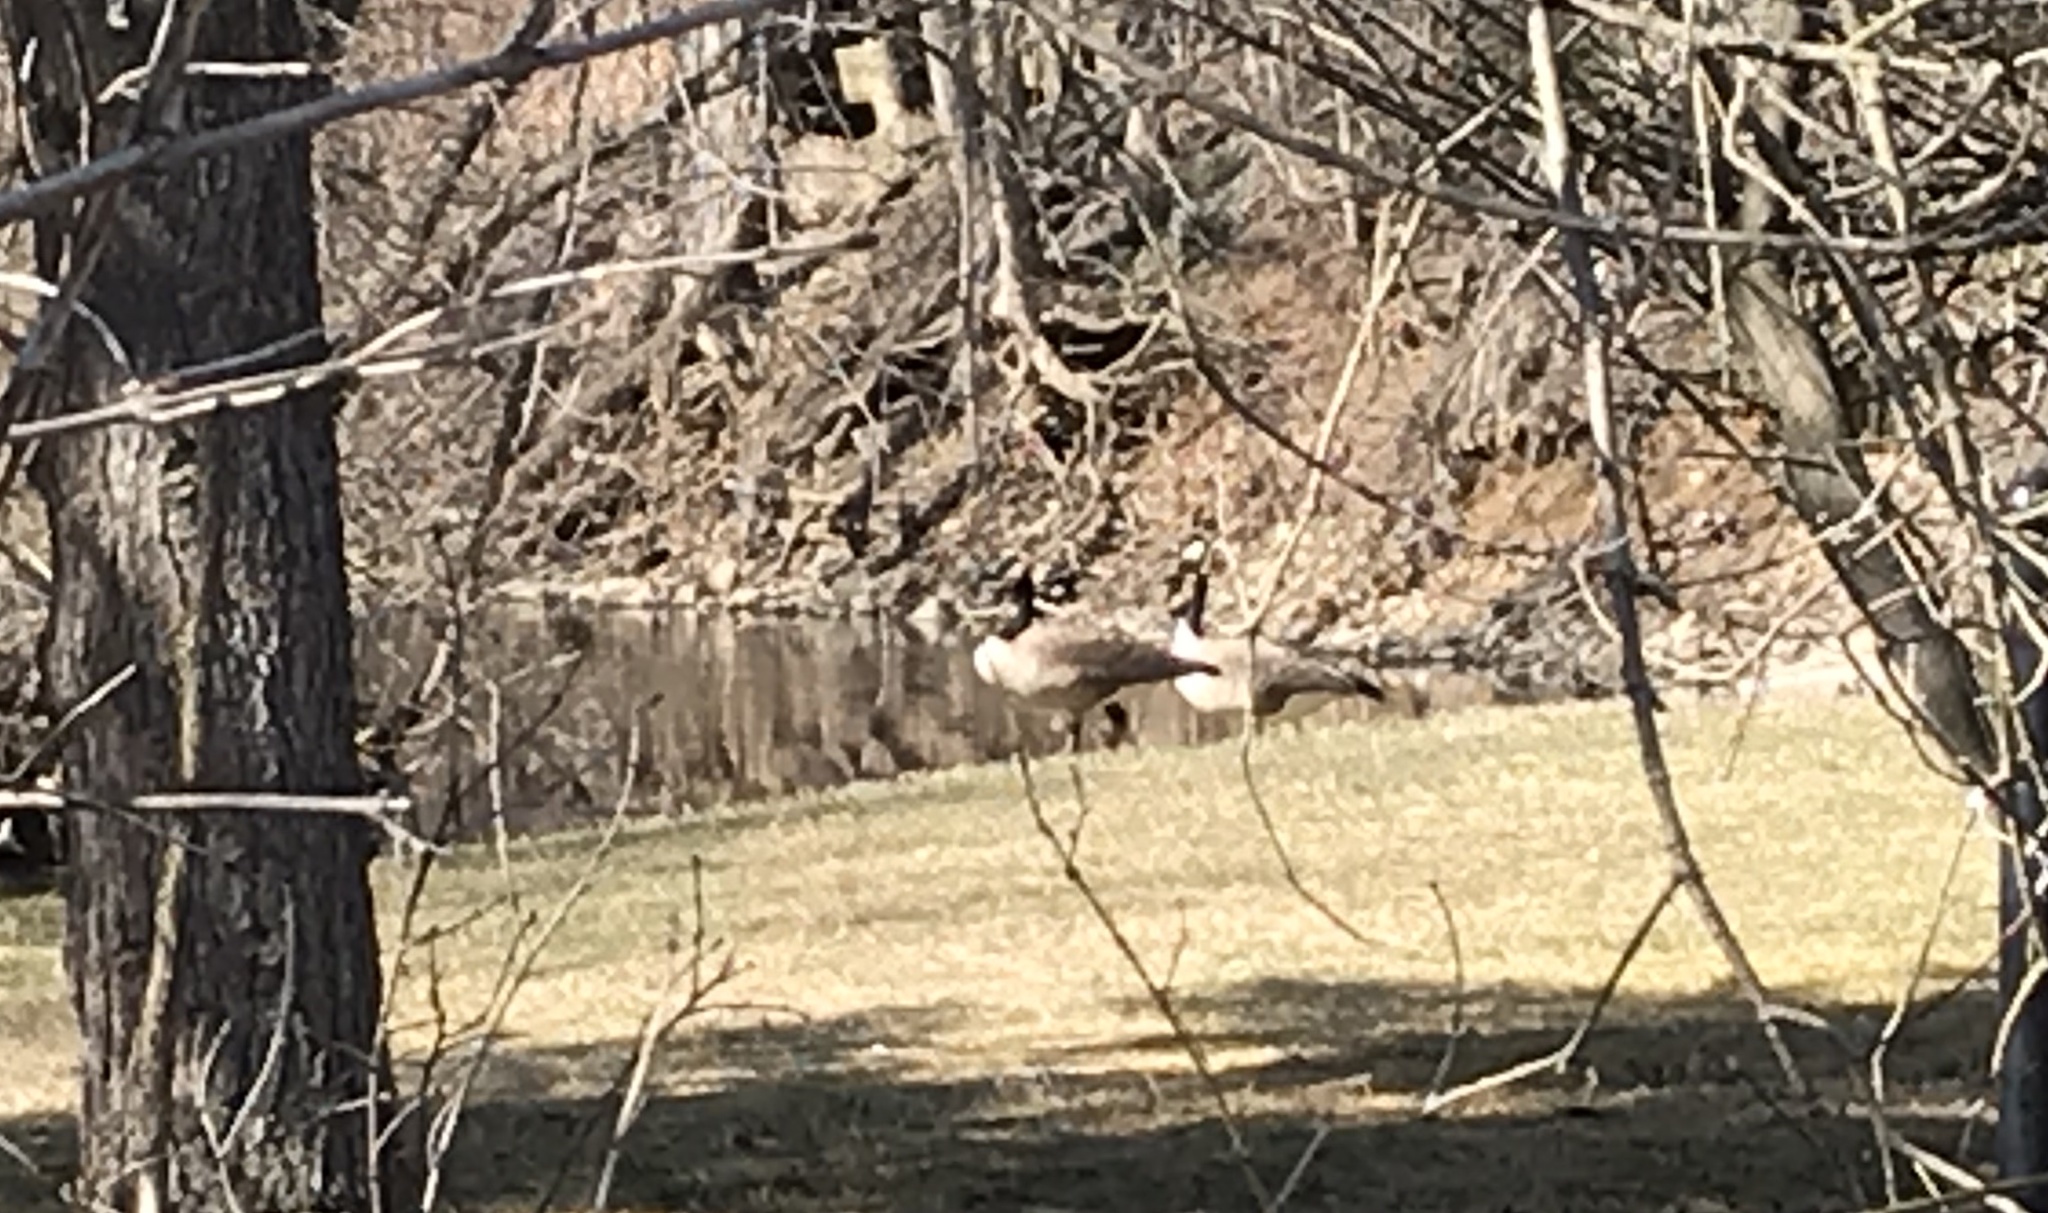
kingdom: Animalia
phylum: Chordata
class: Aves
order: Anseriformes
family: Anatidae
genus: Branta
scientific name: Branta canadensis
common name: Canada goose
